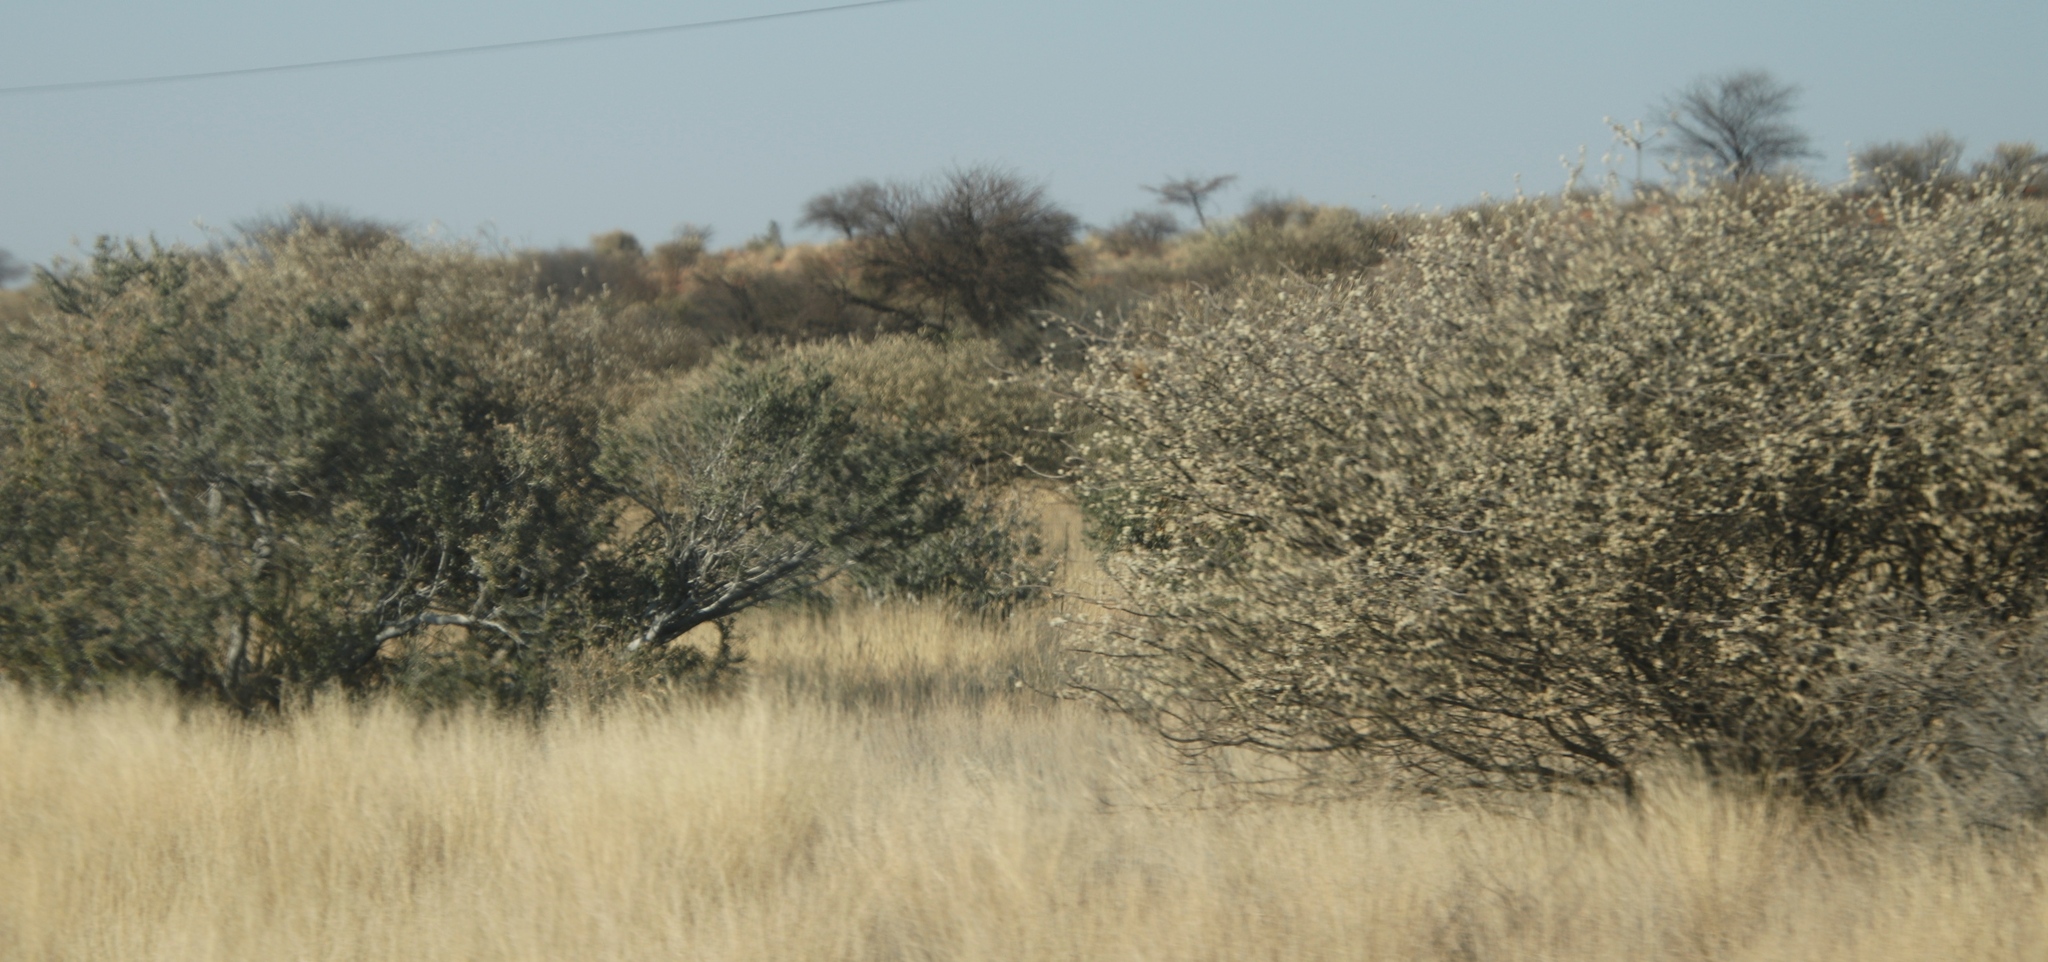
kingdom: Plantae
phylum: Tracheophyta
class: Magnoliopsida
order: Fabales
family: Fabaceae
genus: Senegalia
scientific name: Senegalia mellifera
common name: Hookthorn
